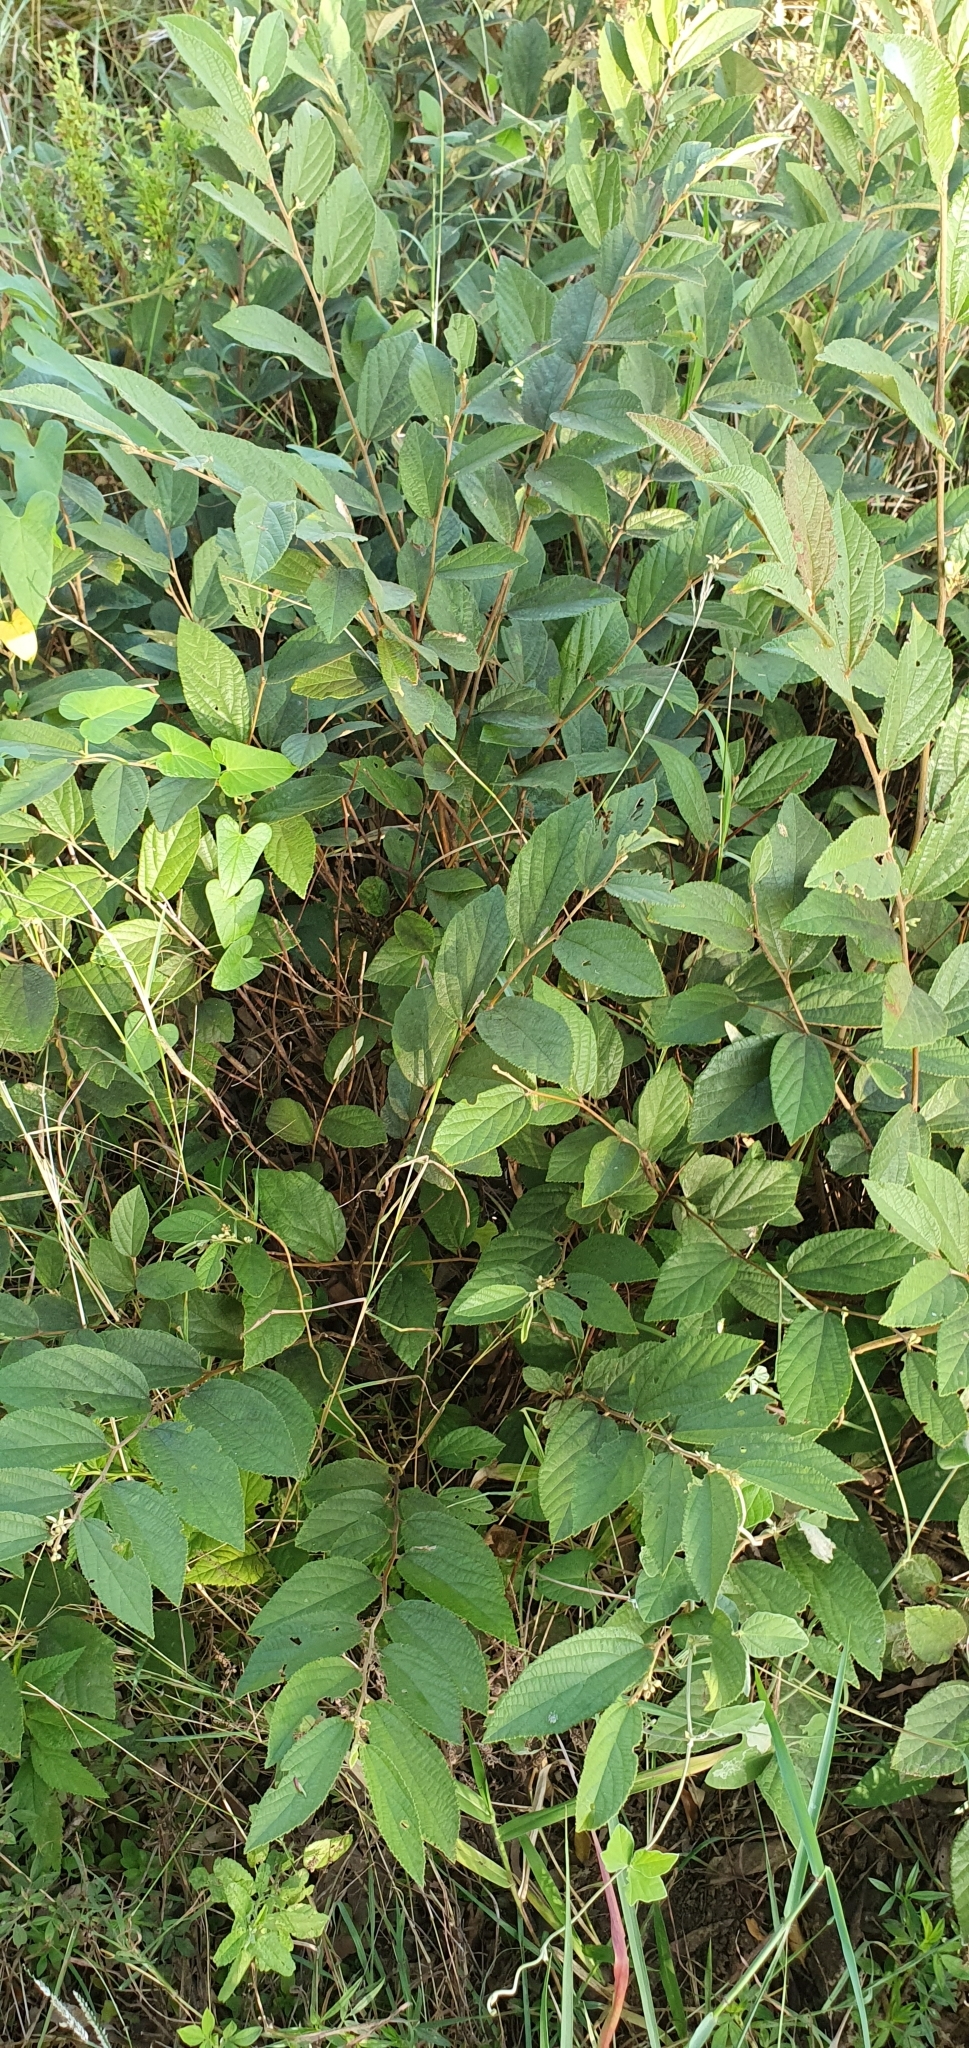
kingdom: Plantae
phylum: Tracheophyta
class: Magnoliopsida
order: Malvales
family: Malvaceae
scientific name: Malvaceae
